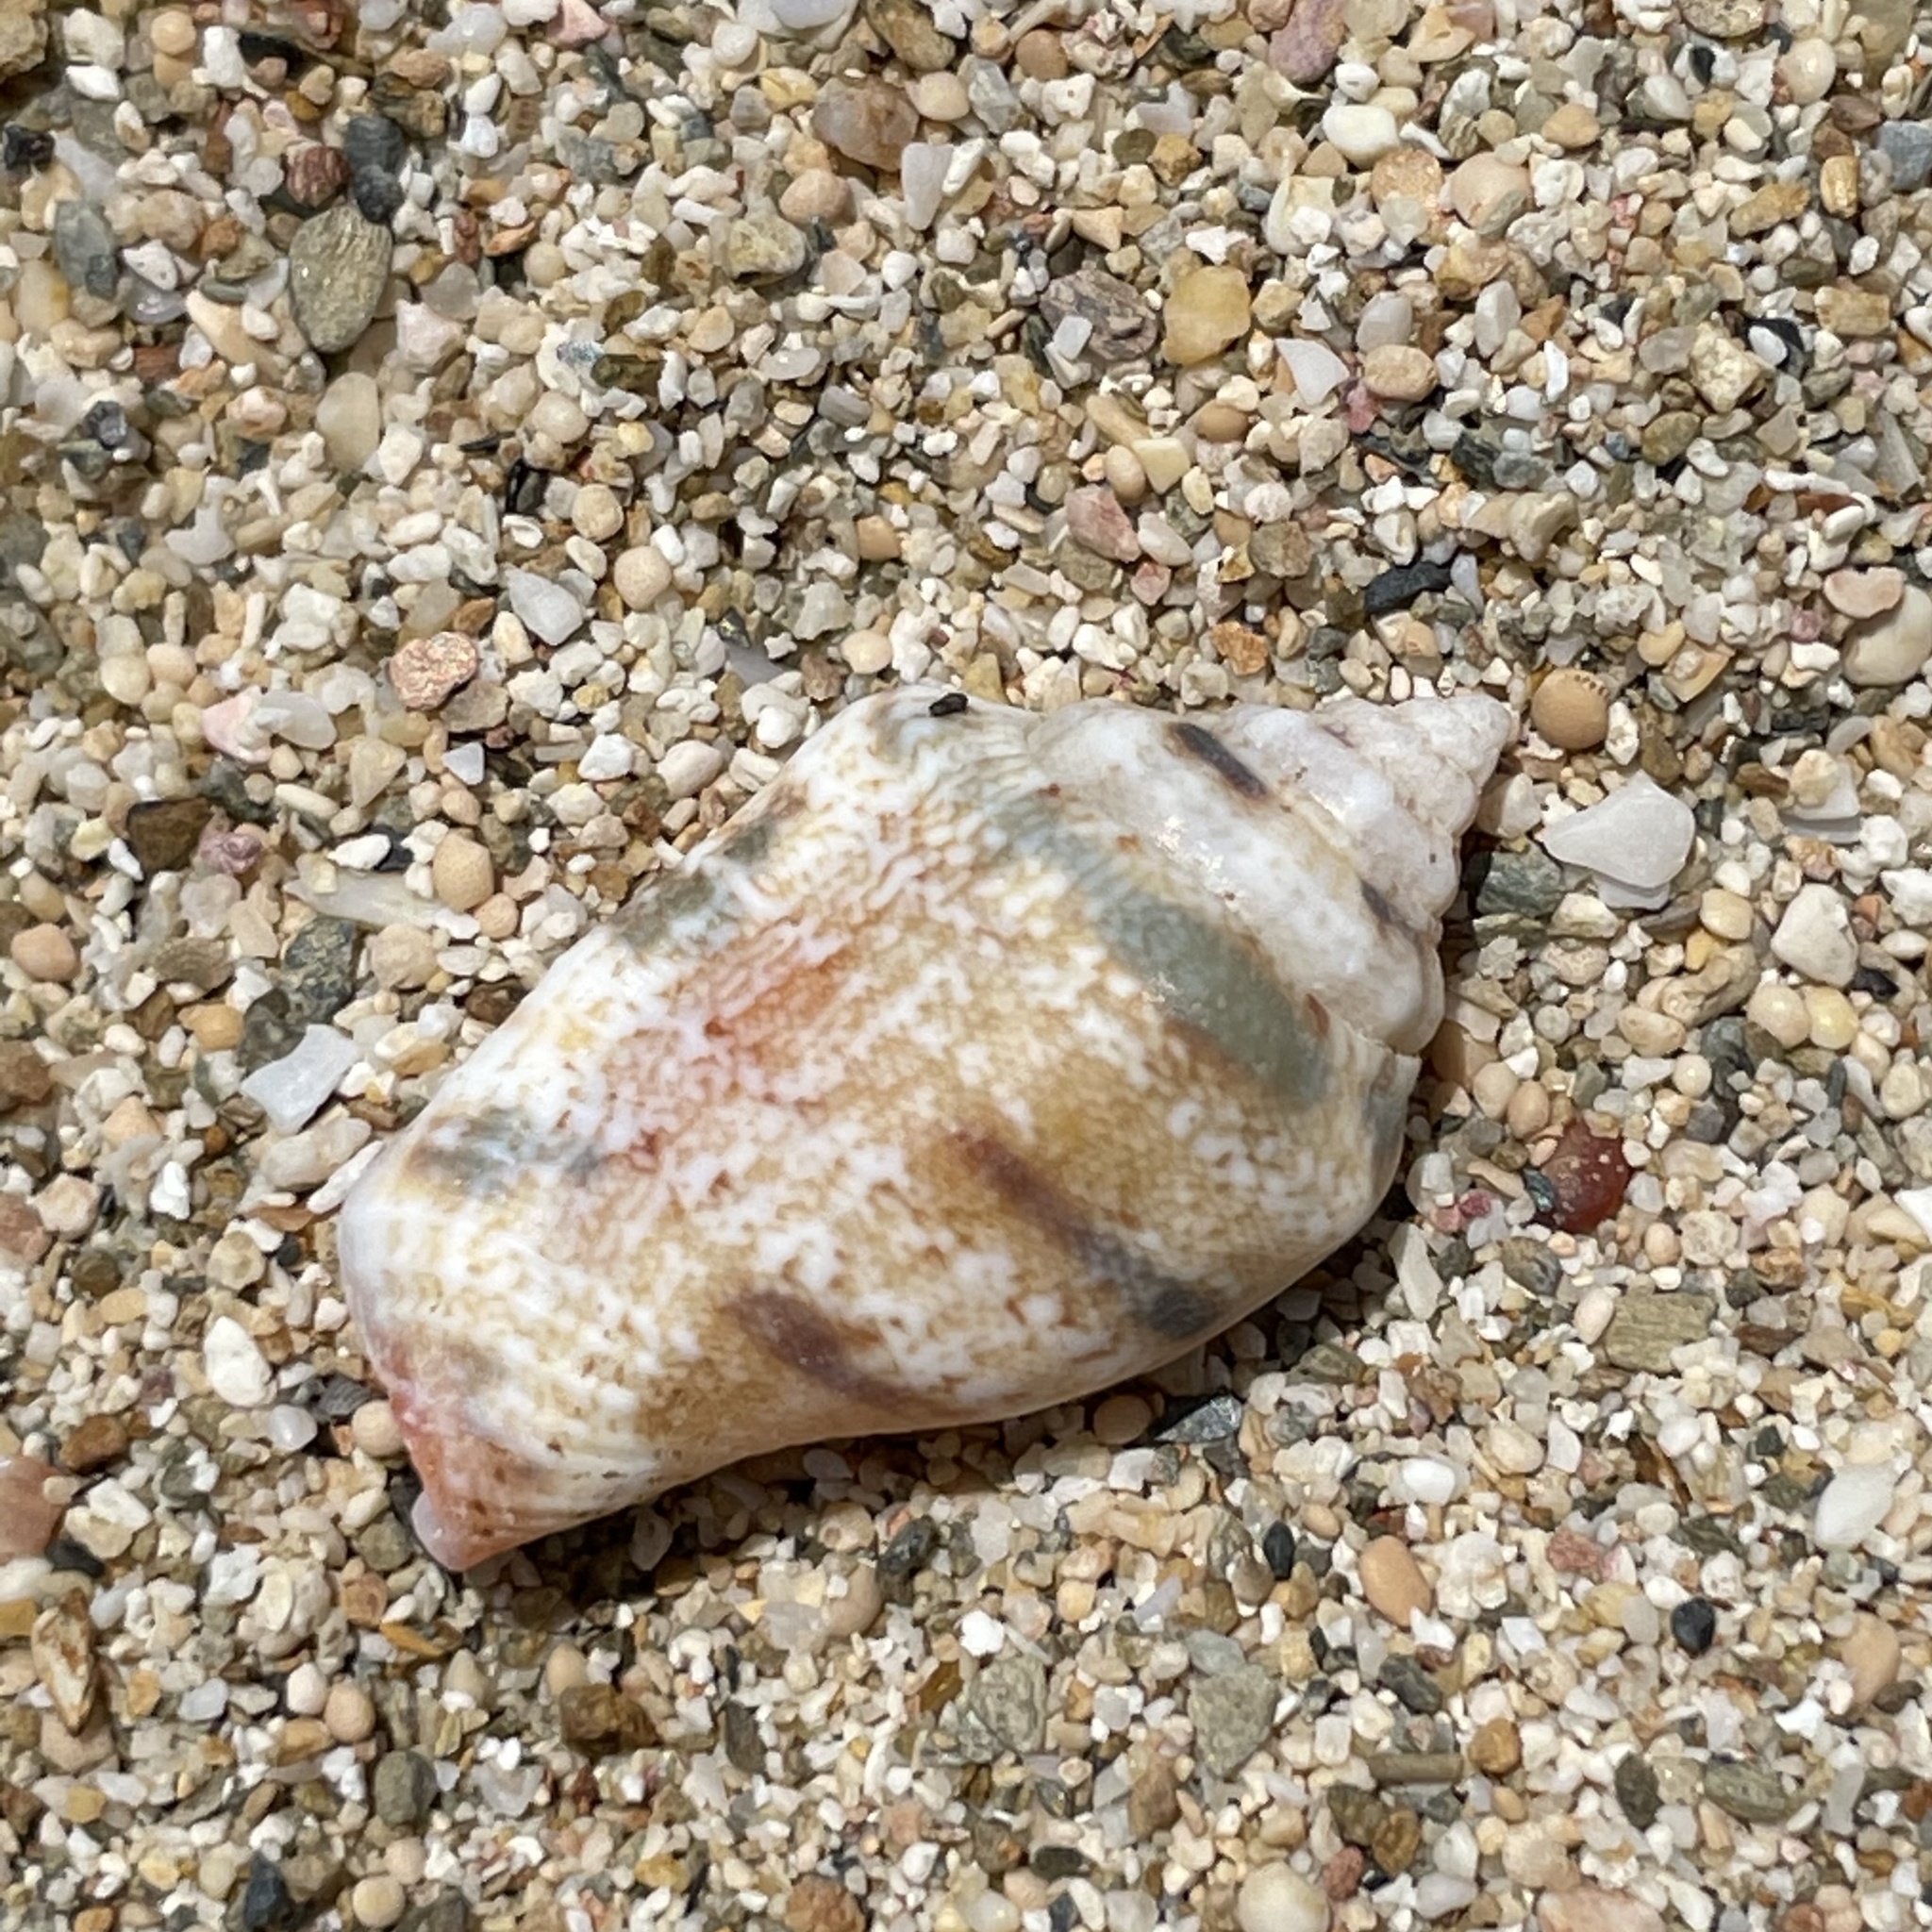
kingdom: Animalia
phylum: Mollusca
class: Gastropoda
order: Littorinimorpha
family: Strombidae
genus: Canarium
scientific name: Canarium mutabile
